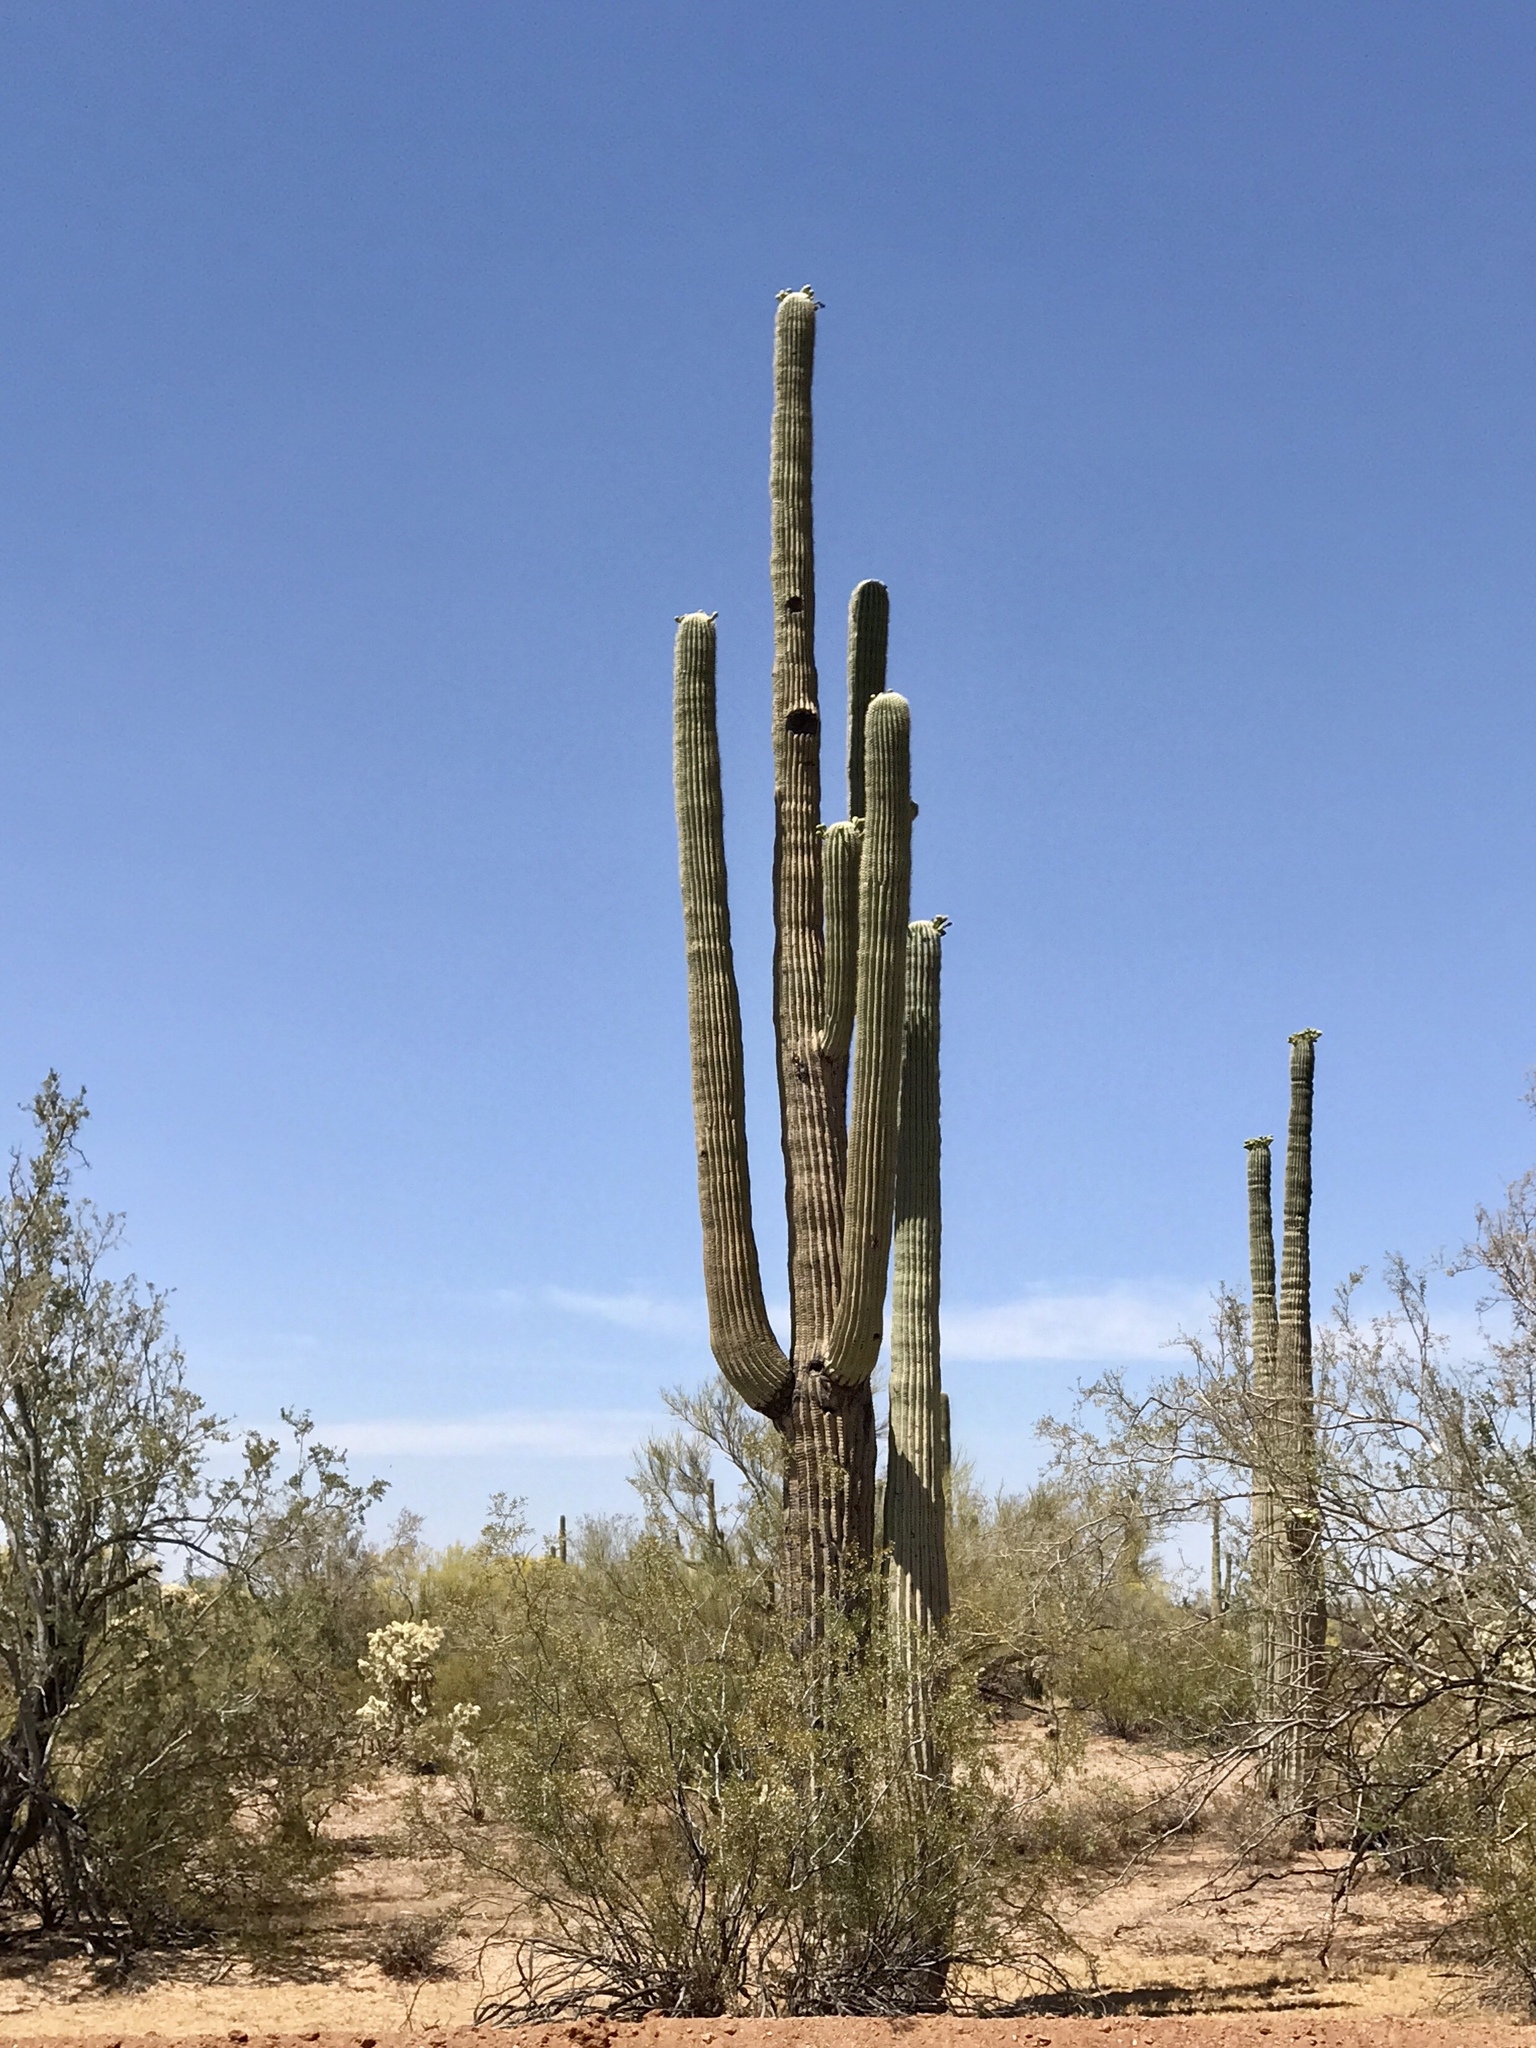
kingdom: Plantae
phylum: Tracheophyta
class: Magnoliopsida
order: Caryophyllales
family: Cactaceae
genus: Carnegiea
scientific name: Carnegiea gigantea
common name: Saguaro
